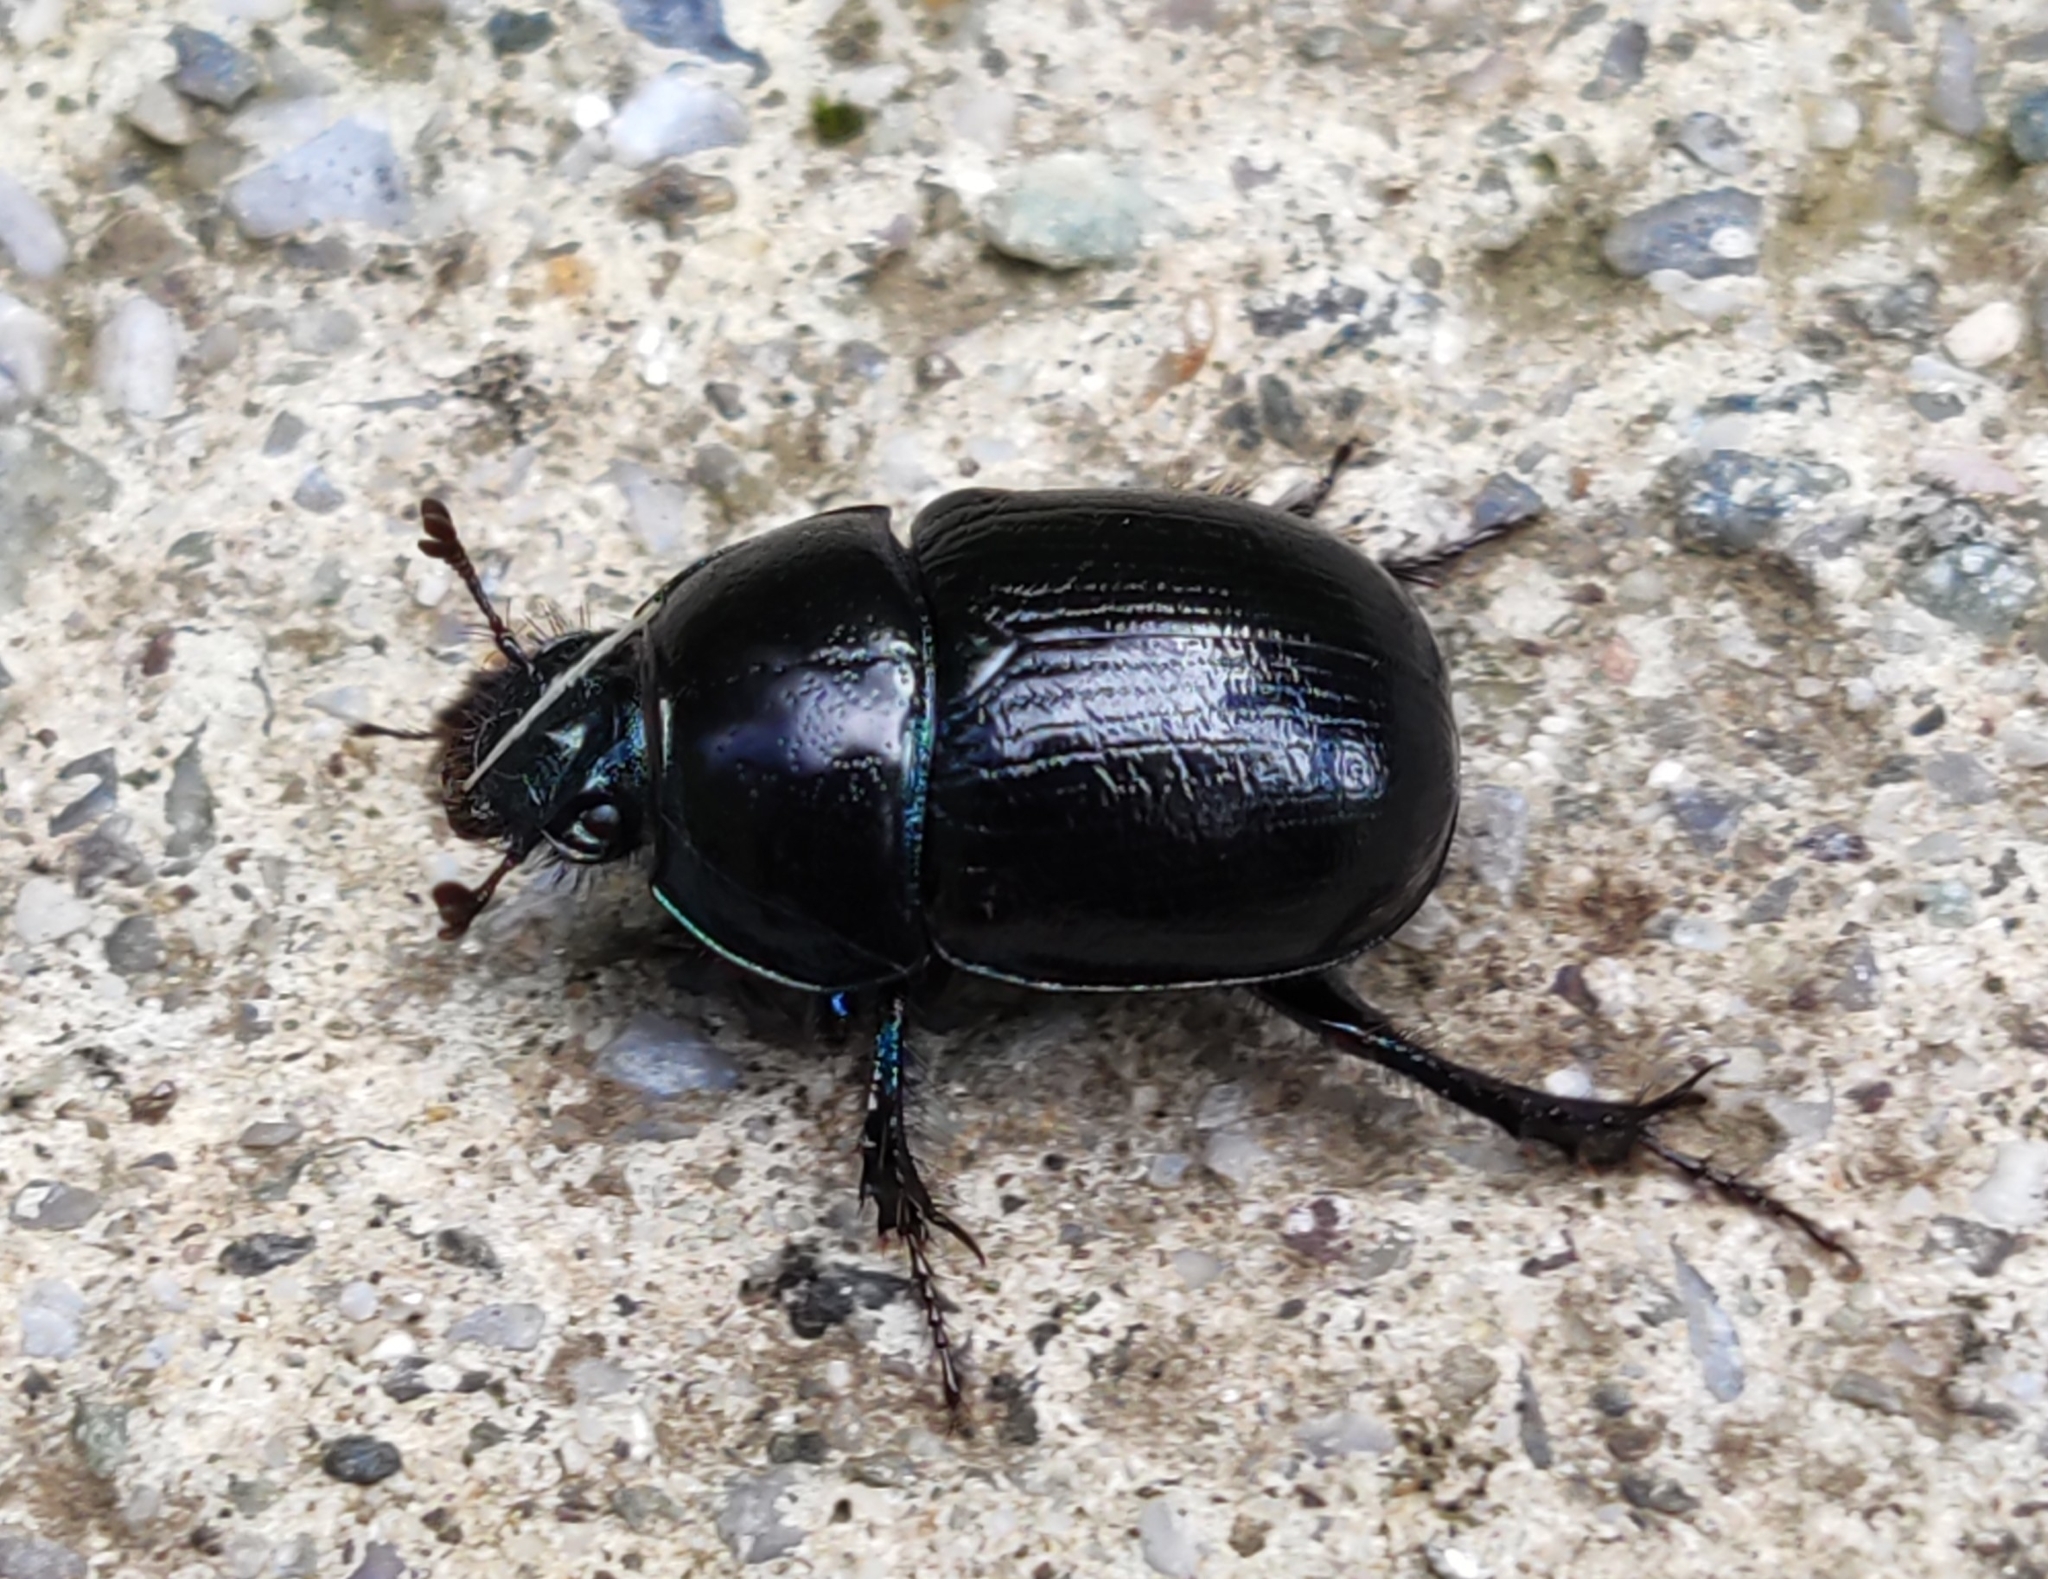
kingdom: Animalia
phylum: Arthropoda
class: Insecta
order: Coleoptera
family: Geotrupidae
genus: Anoplotrupes
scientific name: Anoplotrupes stercorosus
